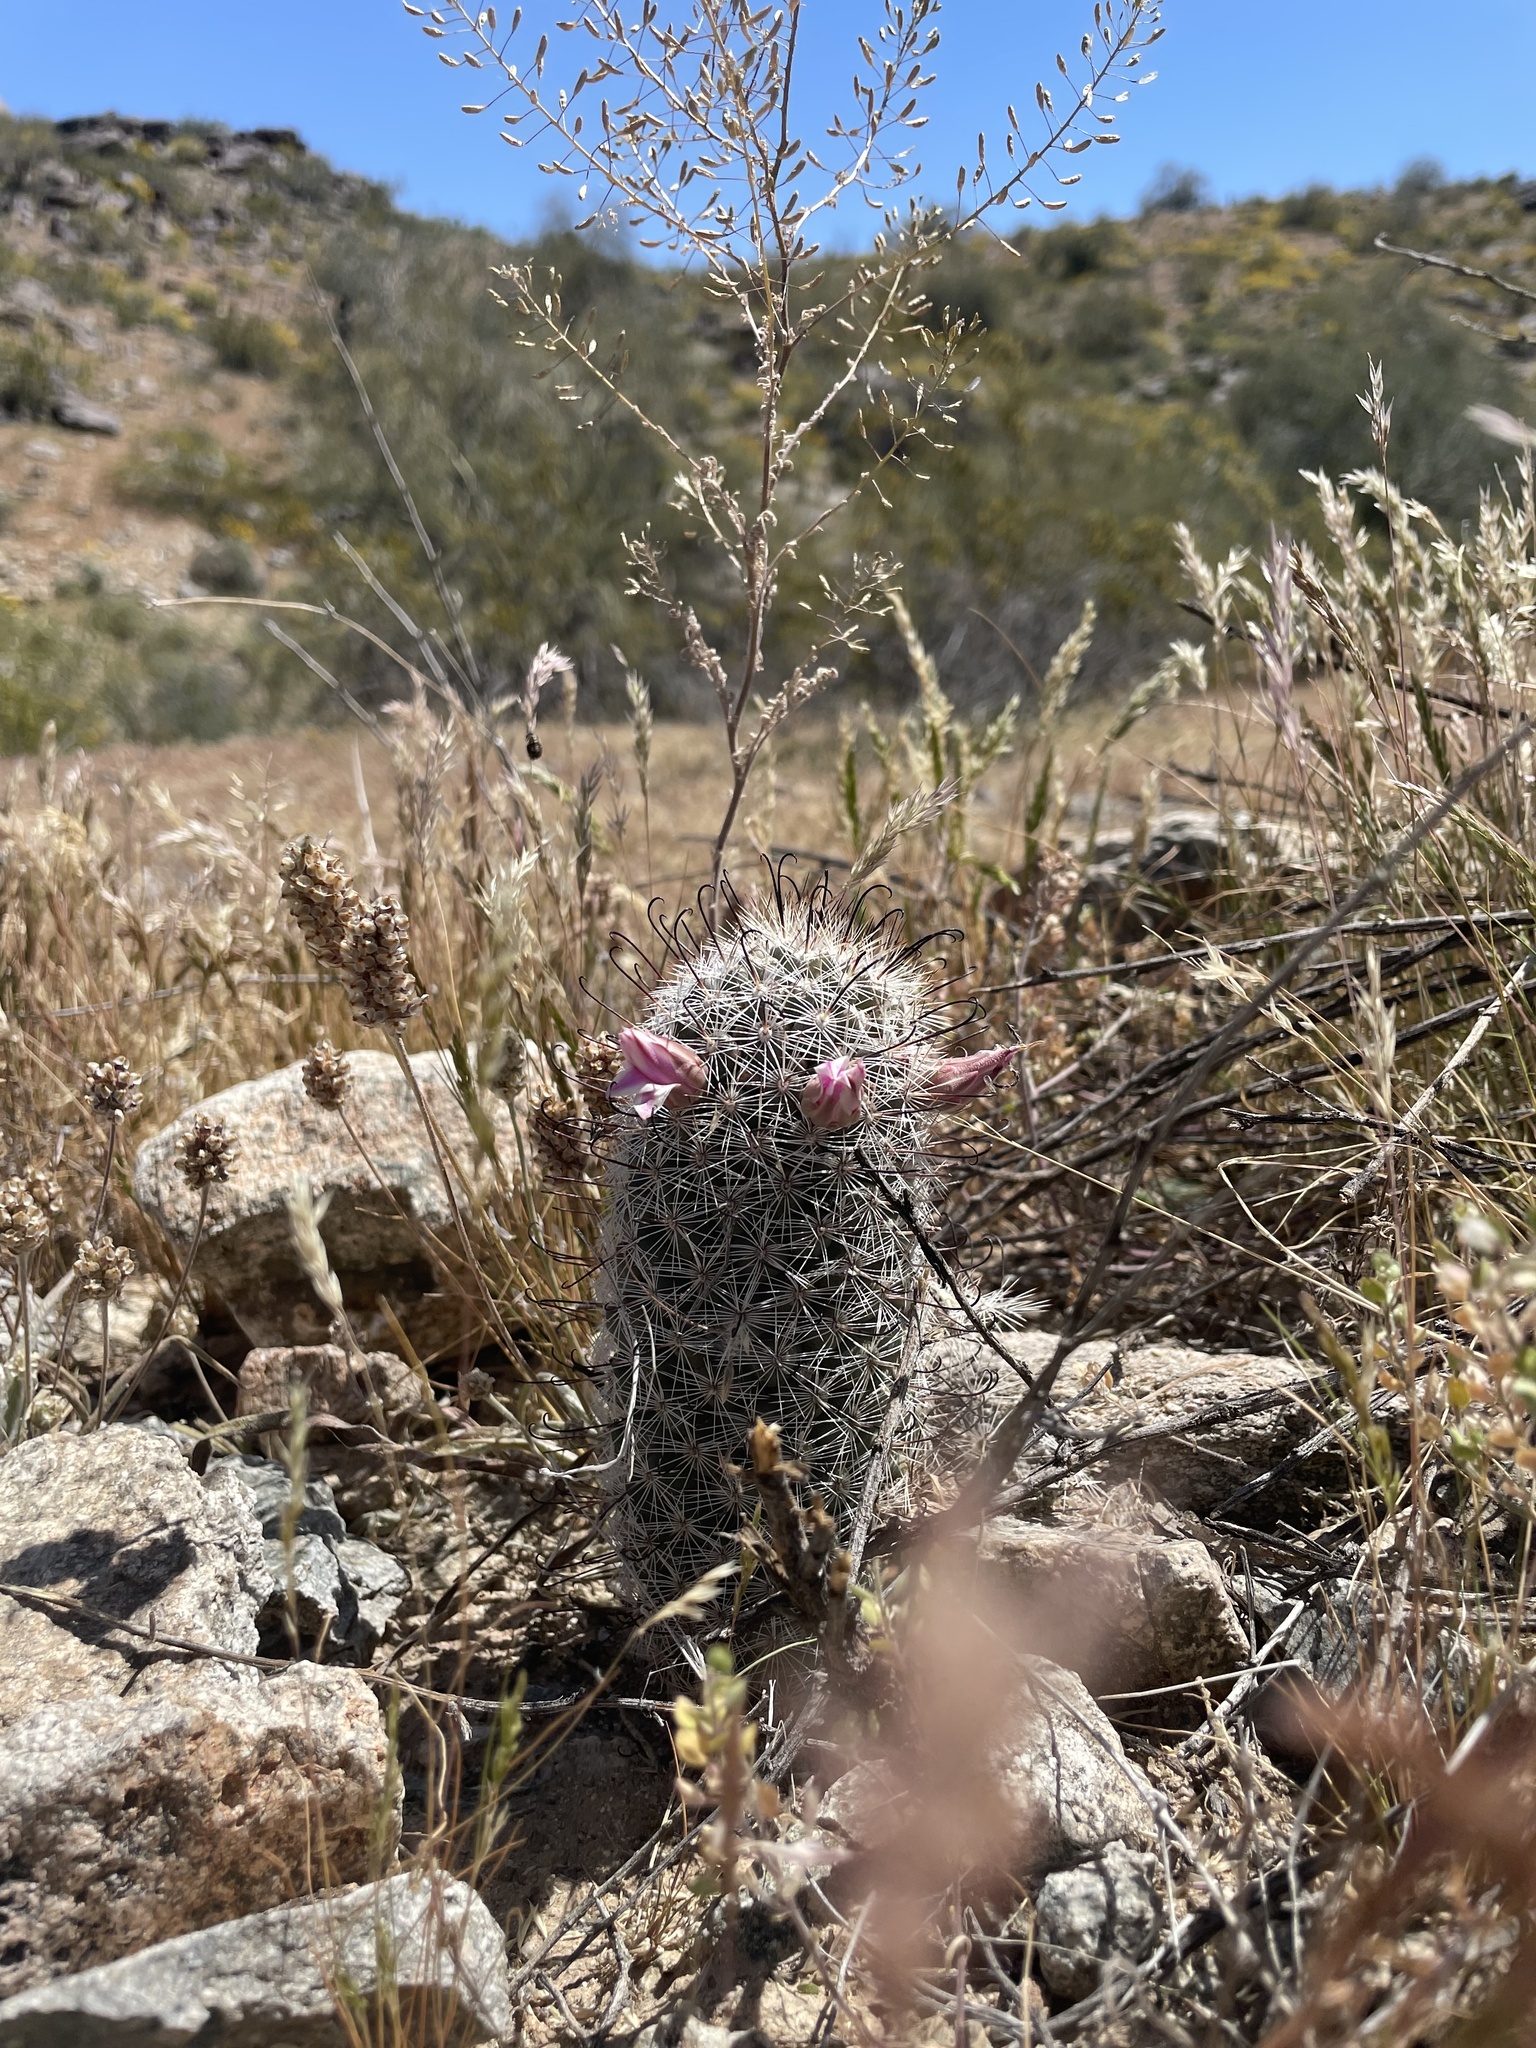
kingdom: Plantae
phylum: Tracheophyta
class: Magnoliopsida
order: Caryophyllales
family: Cactaceae
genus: Cochemiea
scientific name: Cochemiea grahamii
